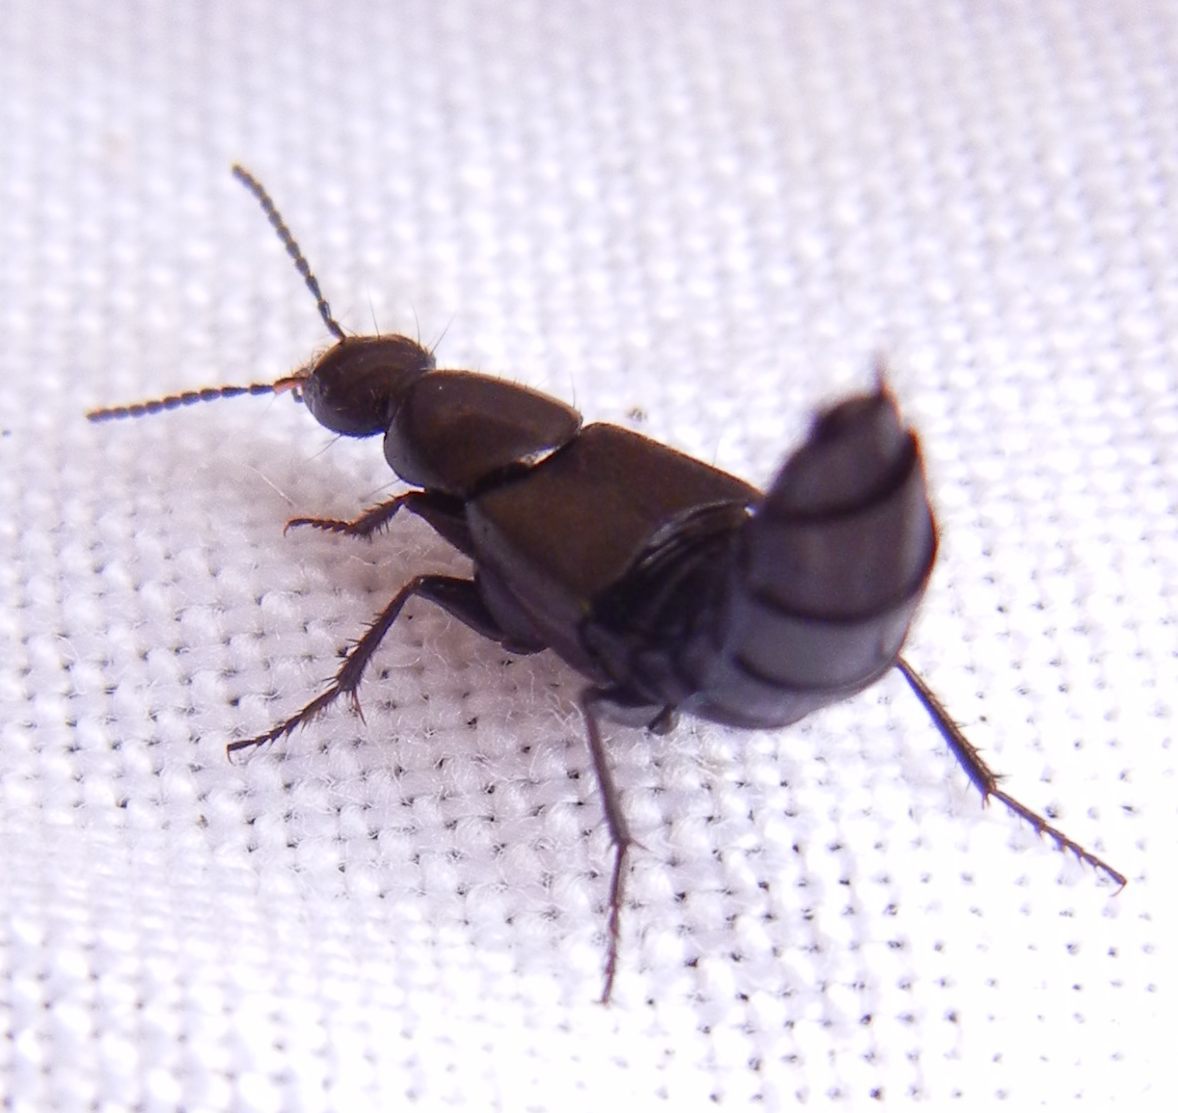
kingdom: Animalia
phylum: Arthropoda
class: Insecta
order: Coleoptera
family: Staphylinidae
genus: Philonthus
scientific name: Philonthus cognatus
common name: Staph beetle
